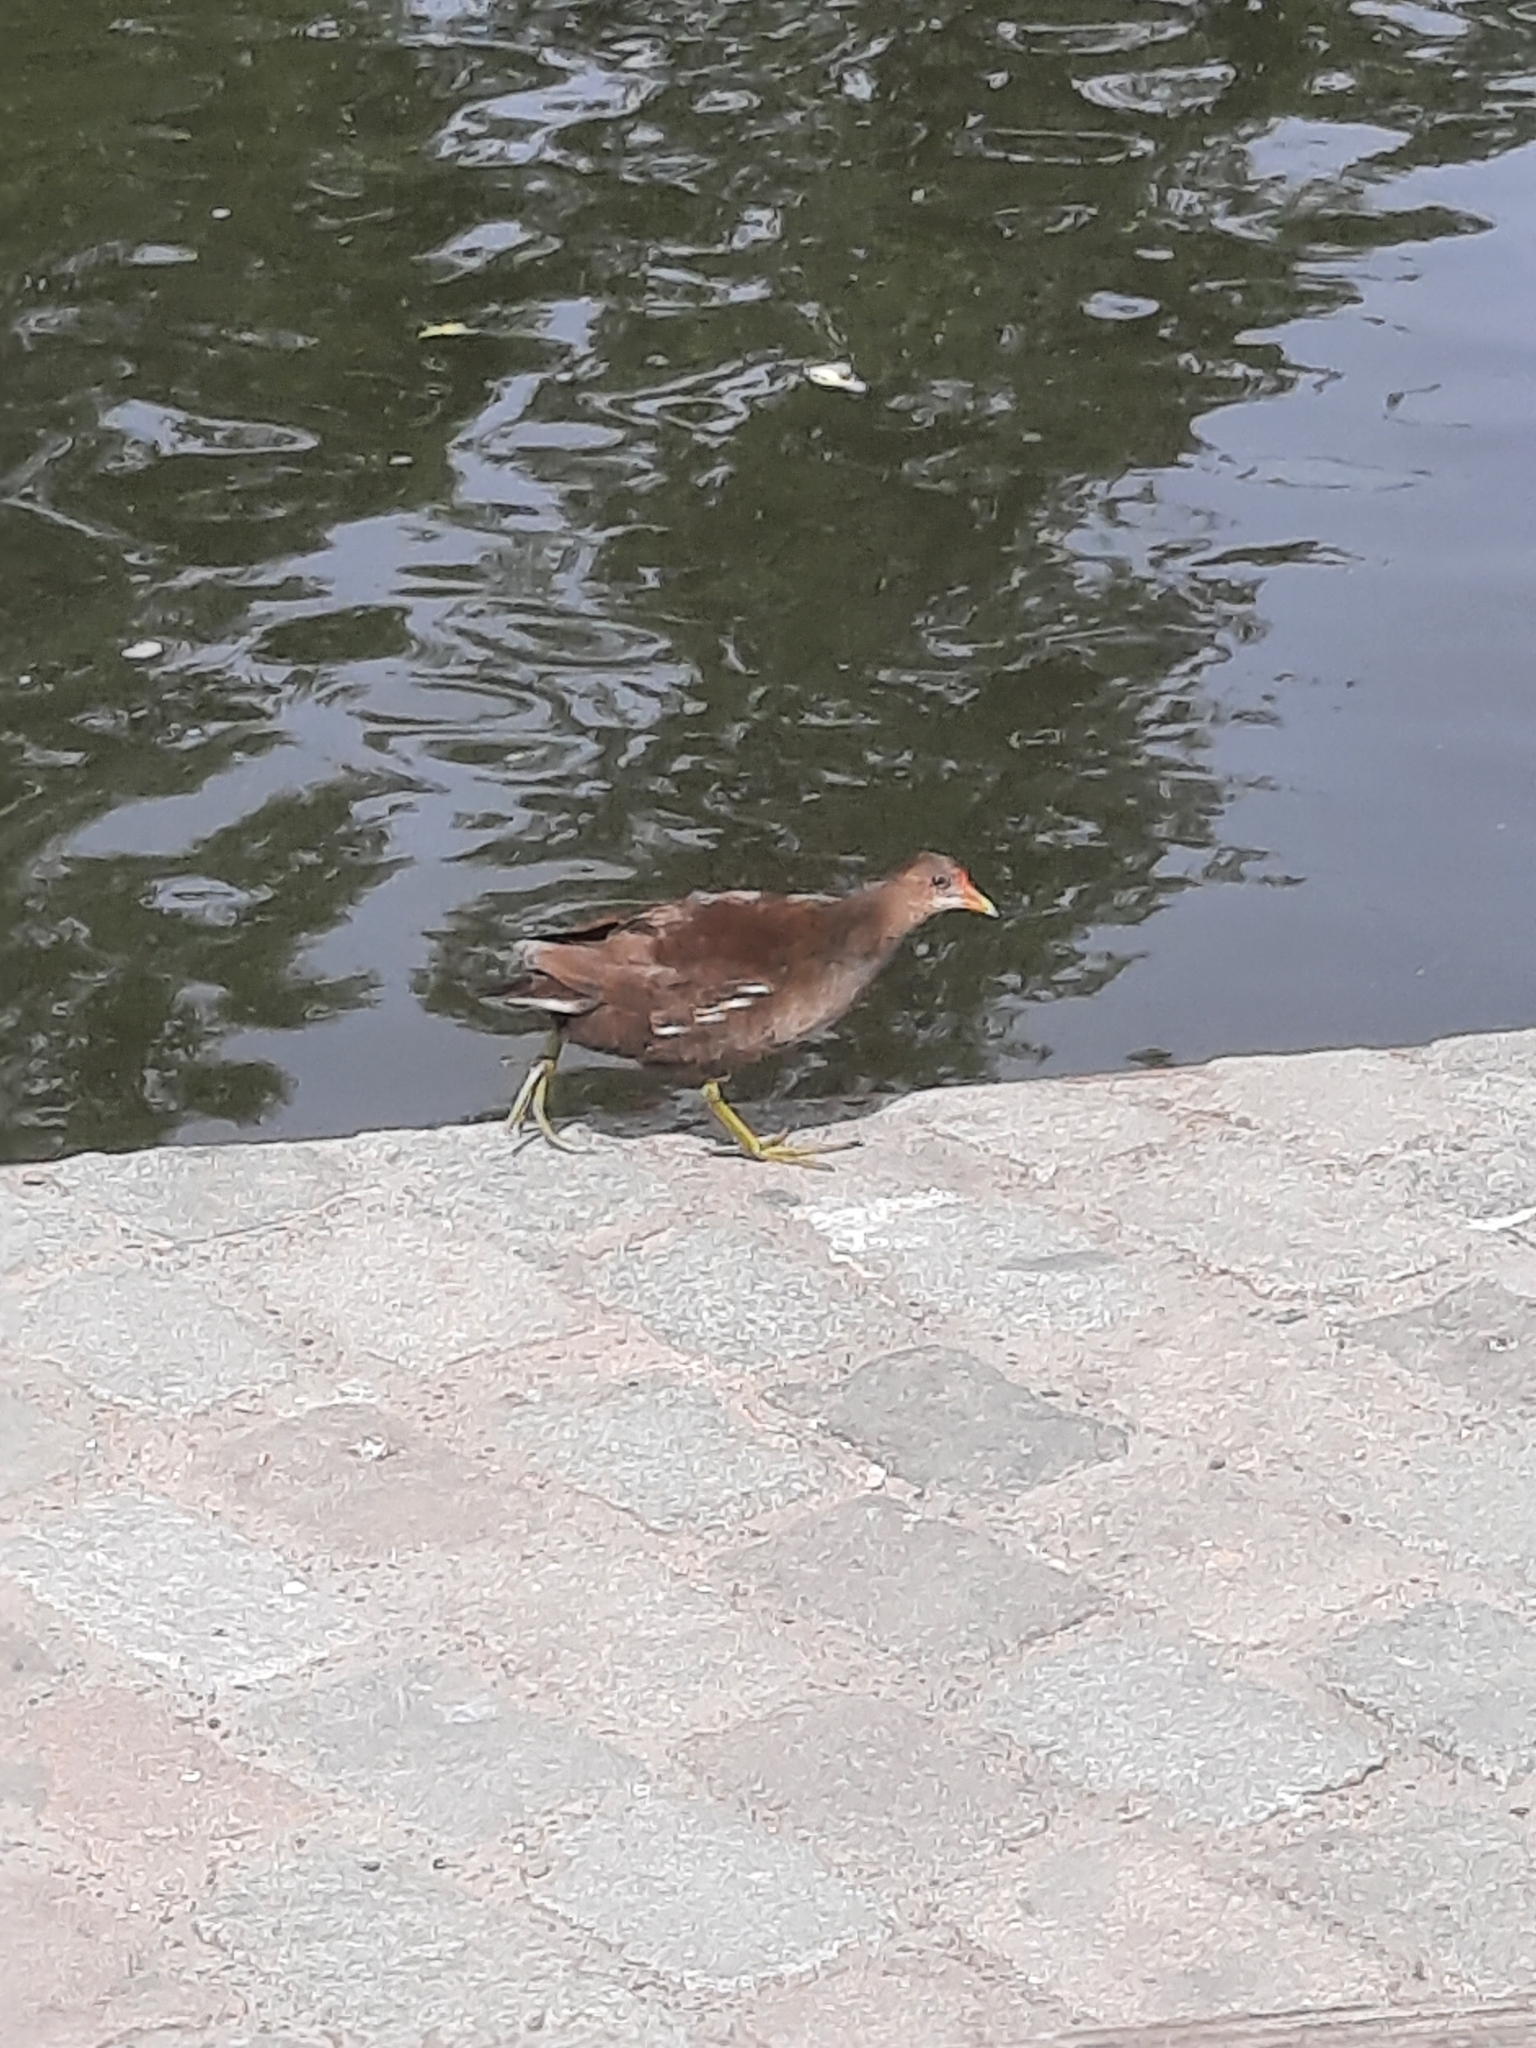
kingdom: Animalia
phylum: Chordata
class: Aves
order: Gruiformes
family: Rallidae
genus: Gallinula
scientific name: Gallinula chloropus
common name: Common moorhen
